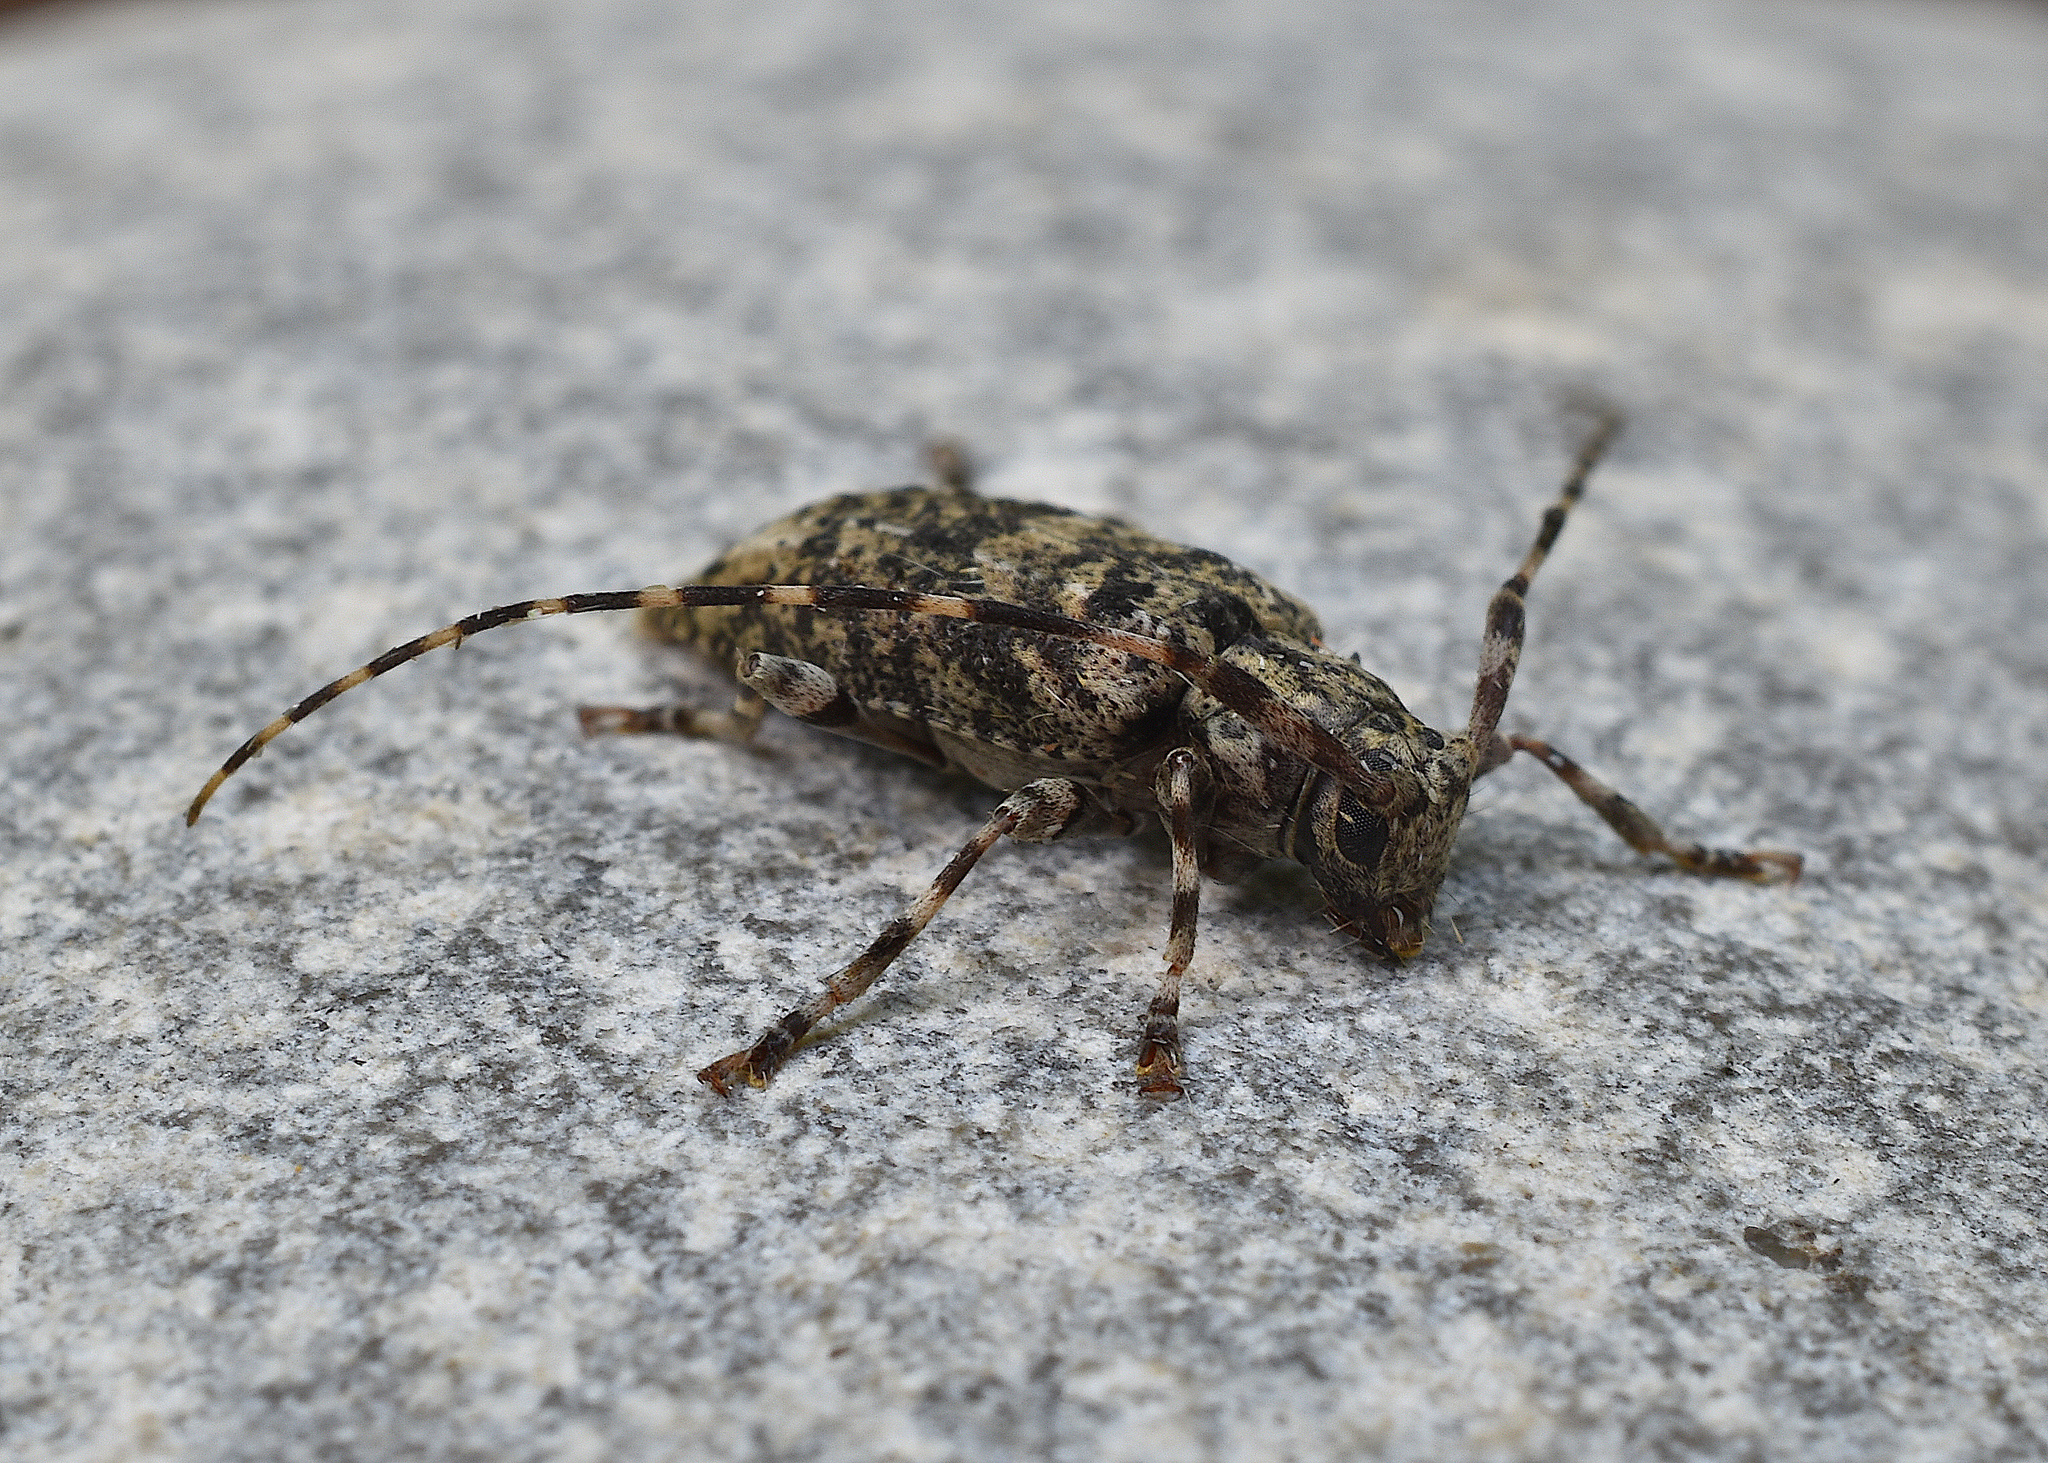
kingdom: Animalia
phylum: Arthropoda
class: Insecta
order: Coleoptera
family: Cerambycidae
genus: Astyleiopus
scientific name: Astyleiopus variegatus
